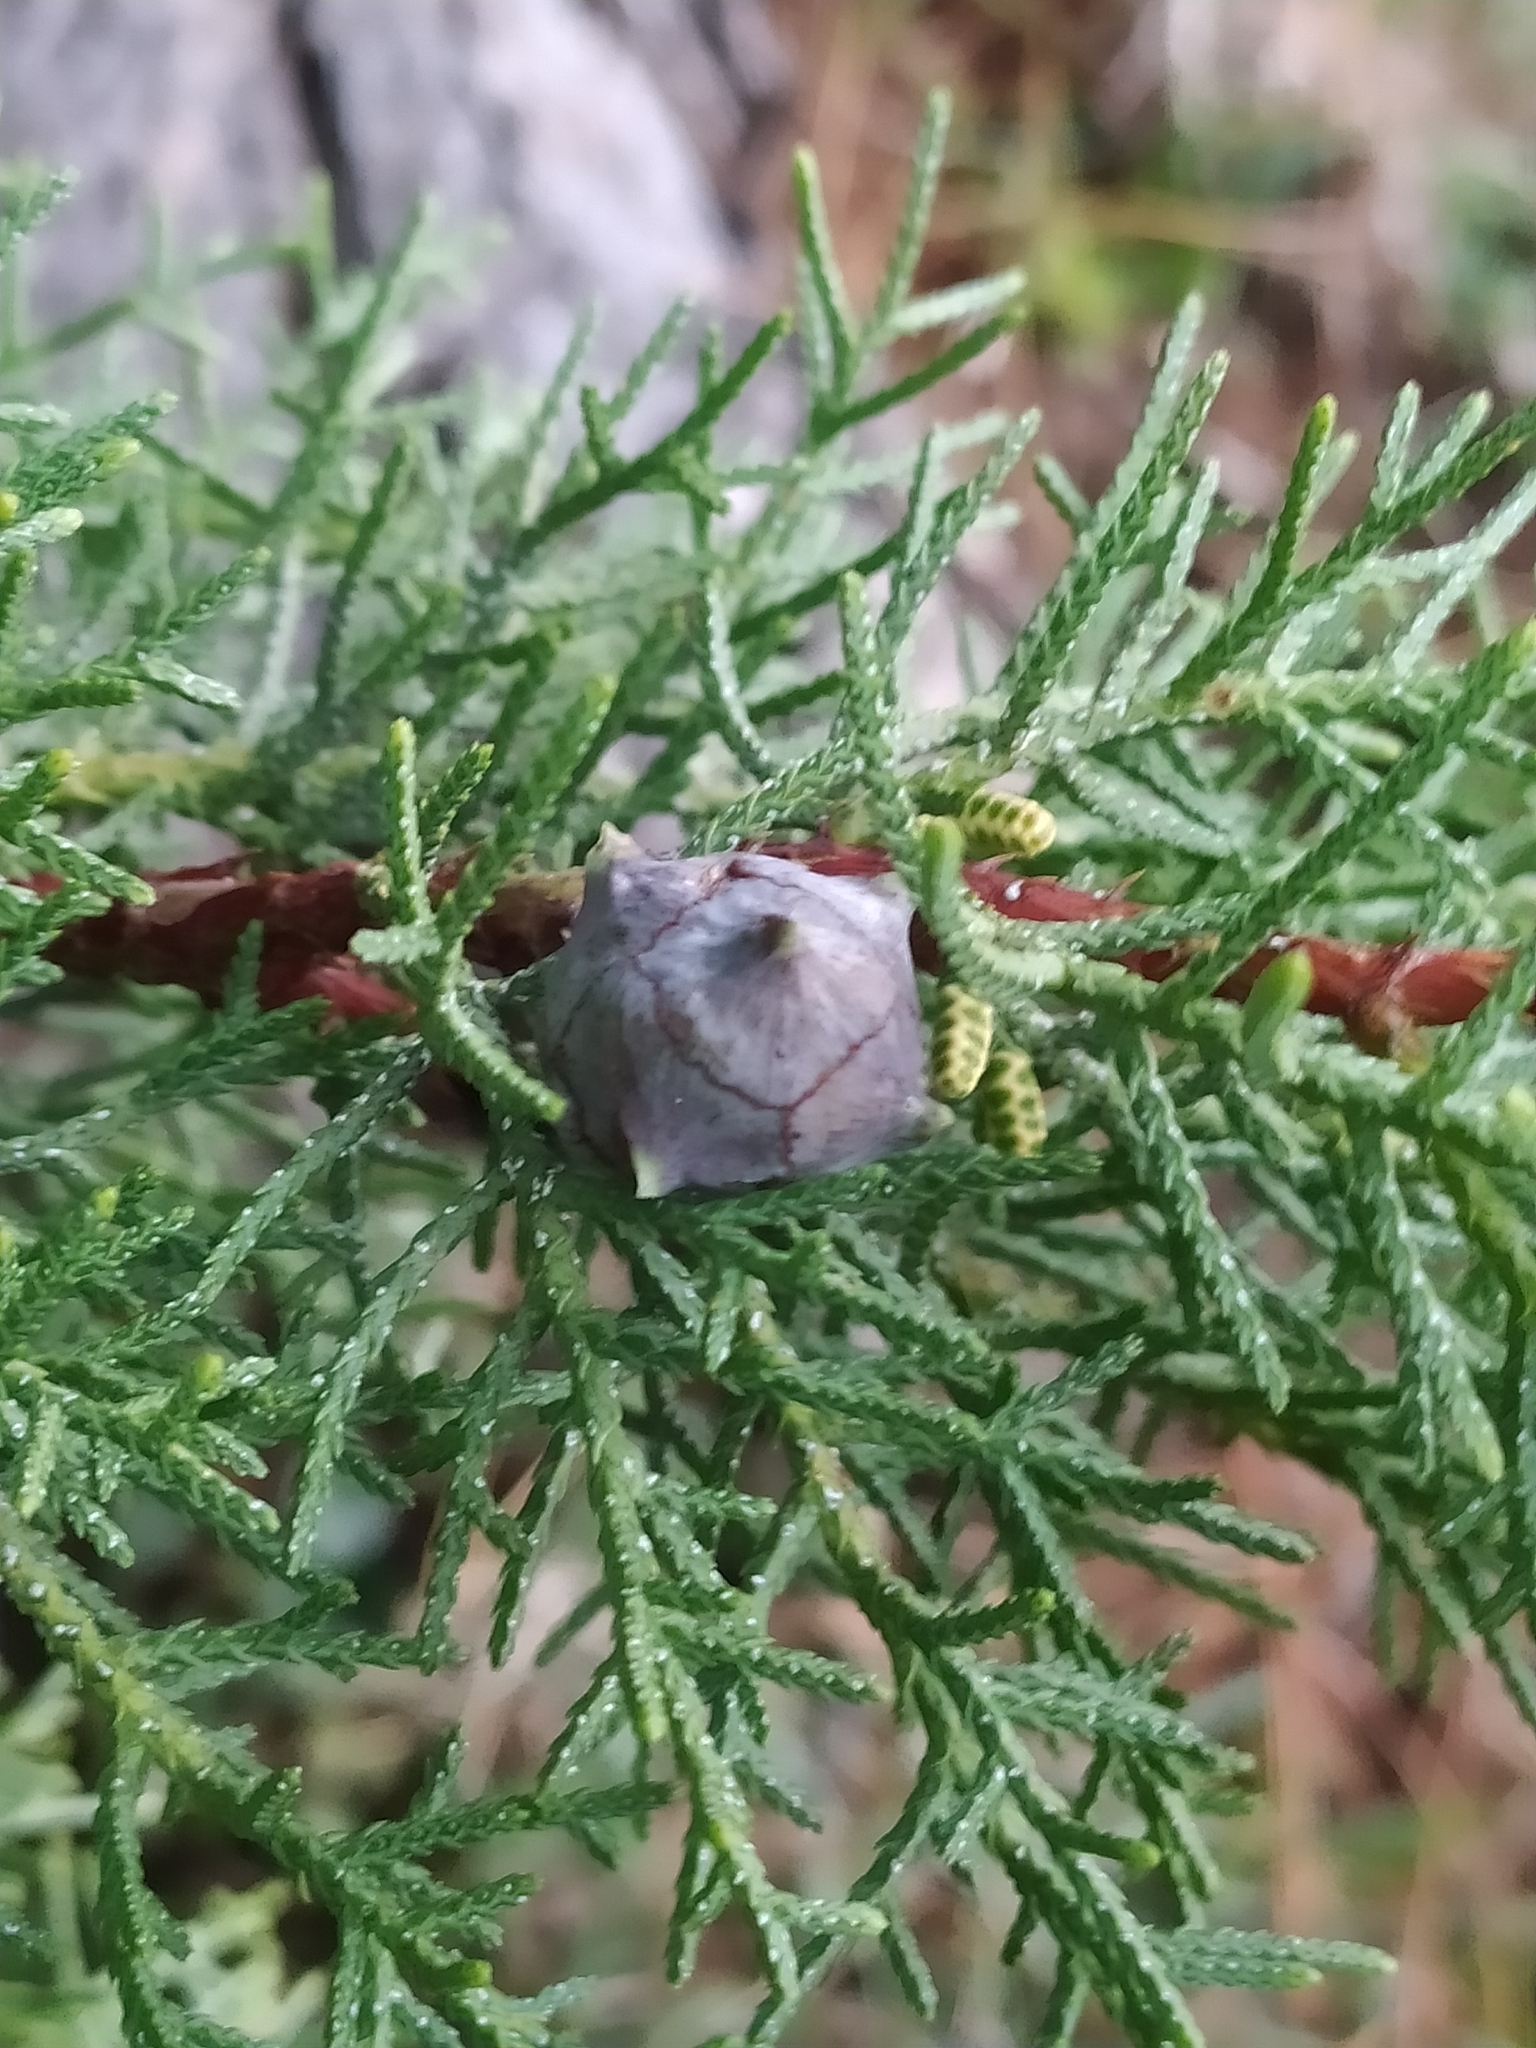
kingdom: Plantae
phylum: Tracheophyta
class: Pinopsida
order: Pinales
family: Cupressaceae
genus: Cupressus
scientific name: Cupressus arizonica
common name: Arizona cypress
